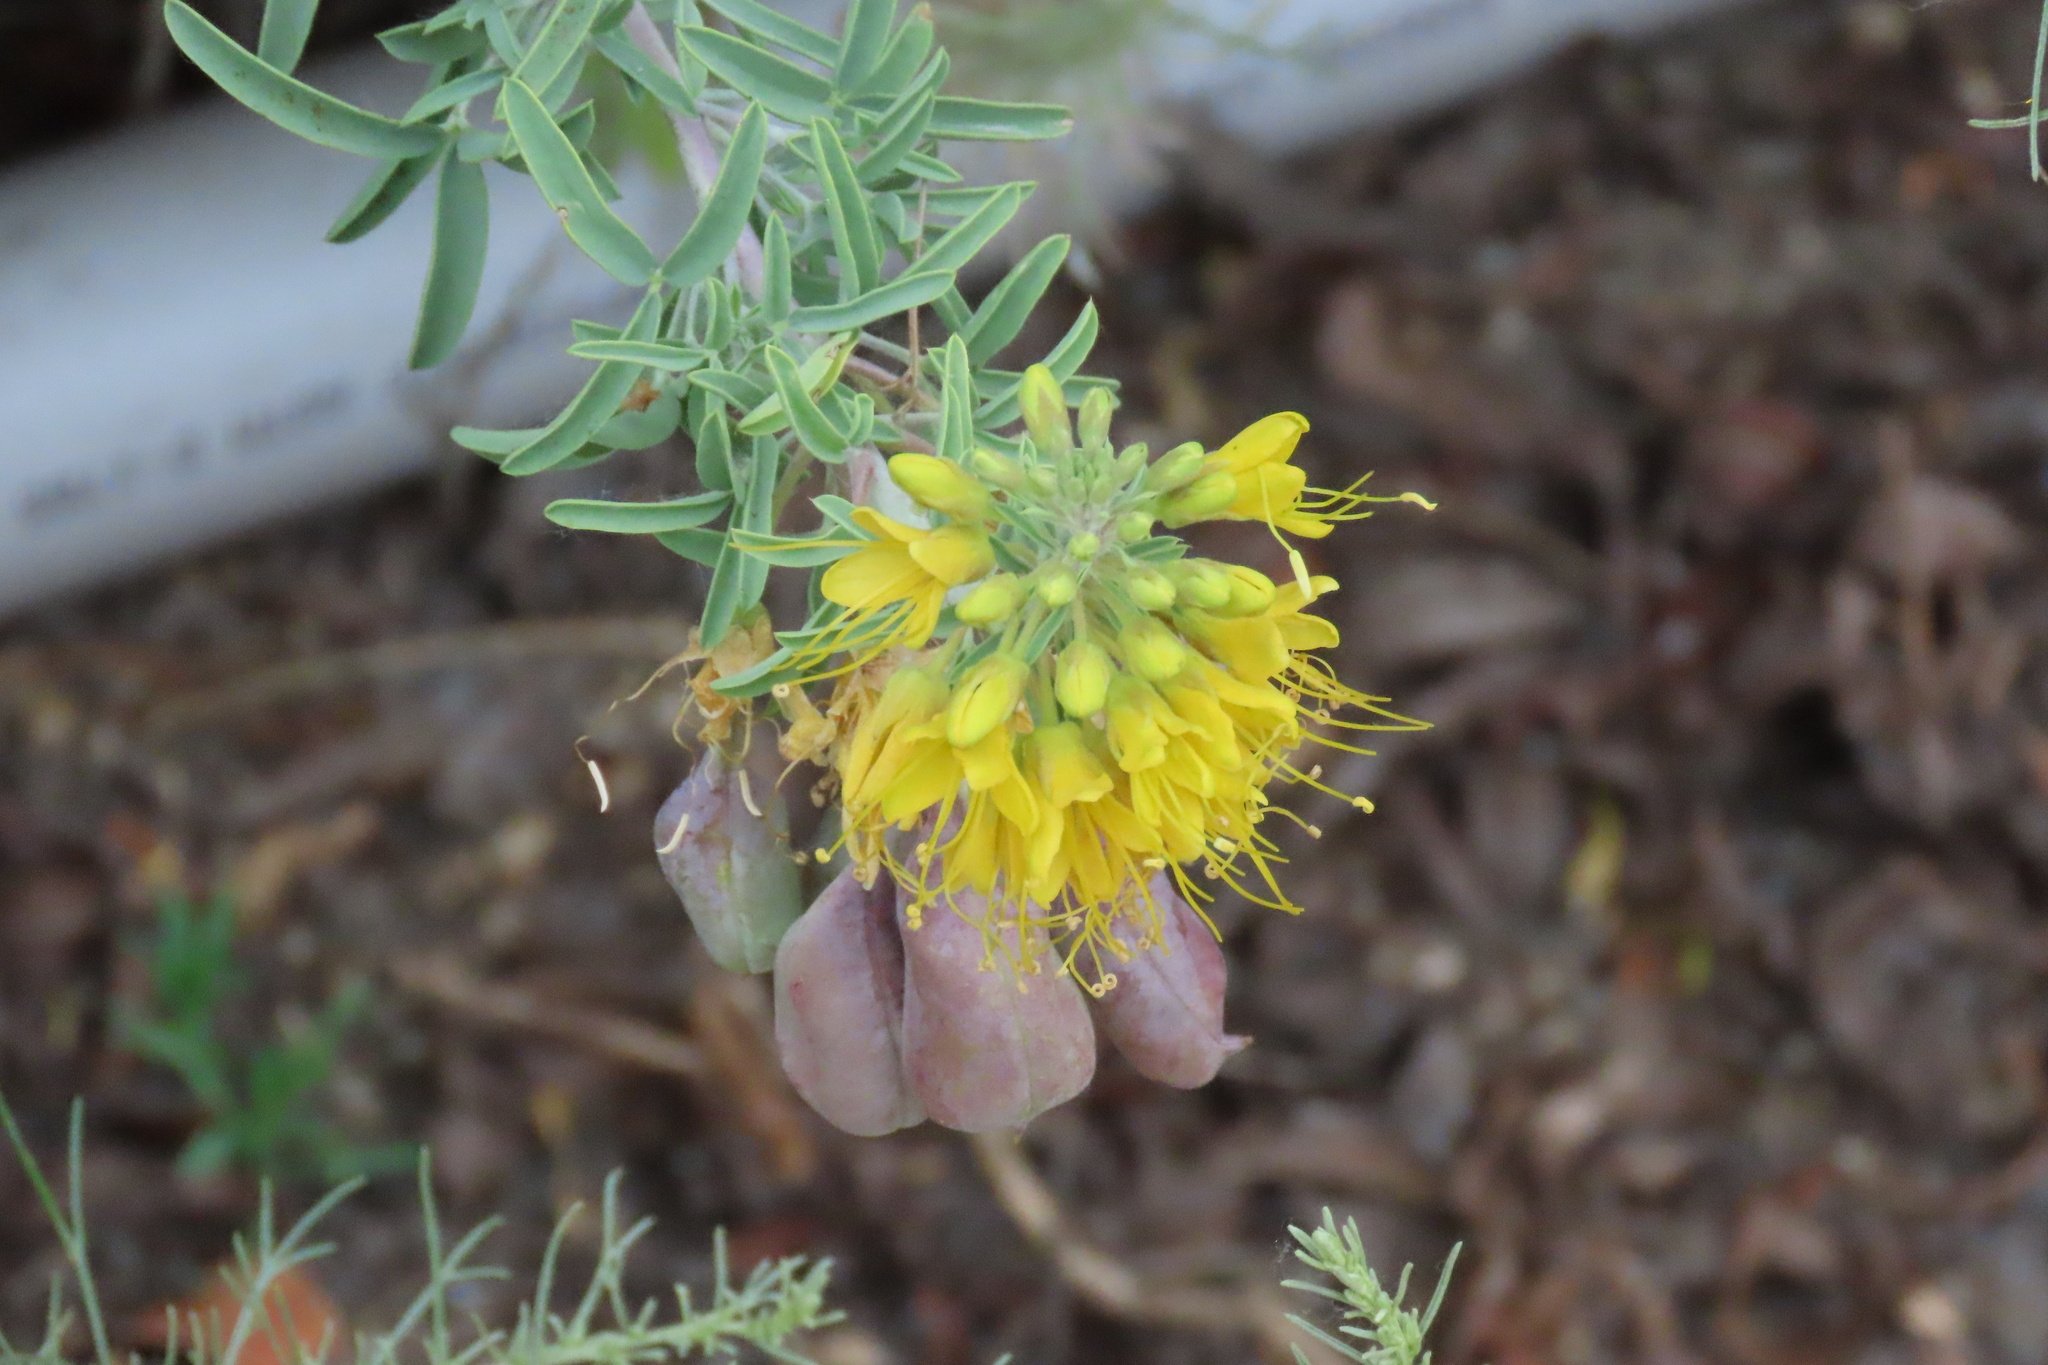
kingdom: Plantae
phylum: Tracheophyta
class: Magnoliopsida
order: Brassicales
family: Cleomaceae
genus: Cleomella
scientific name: Cleomella arborea
